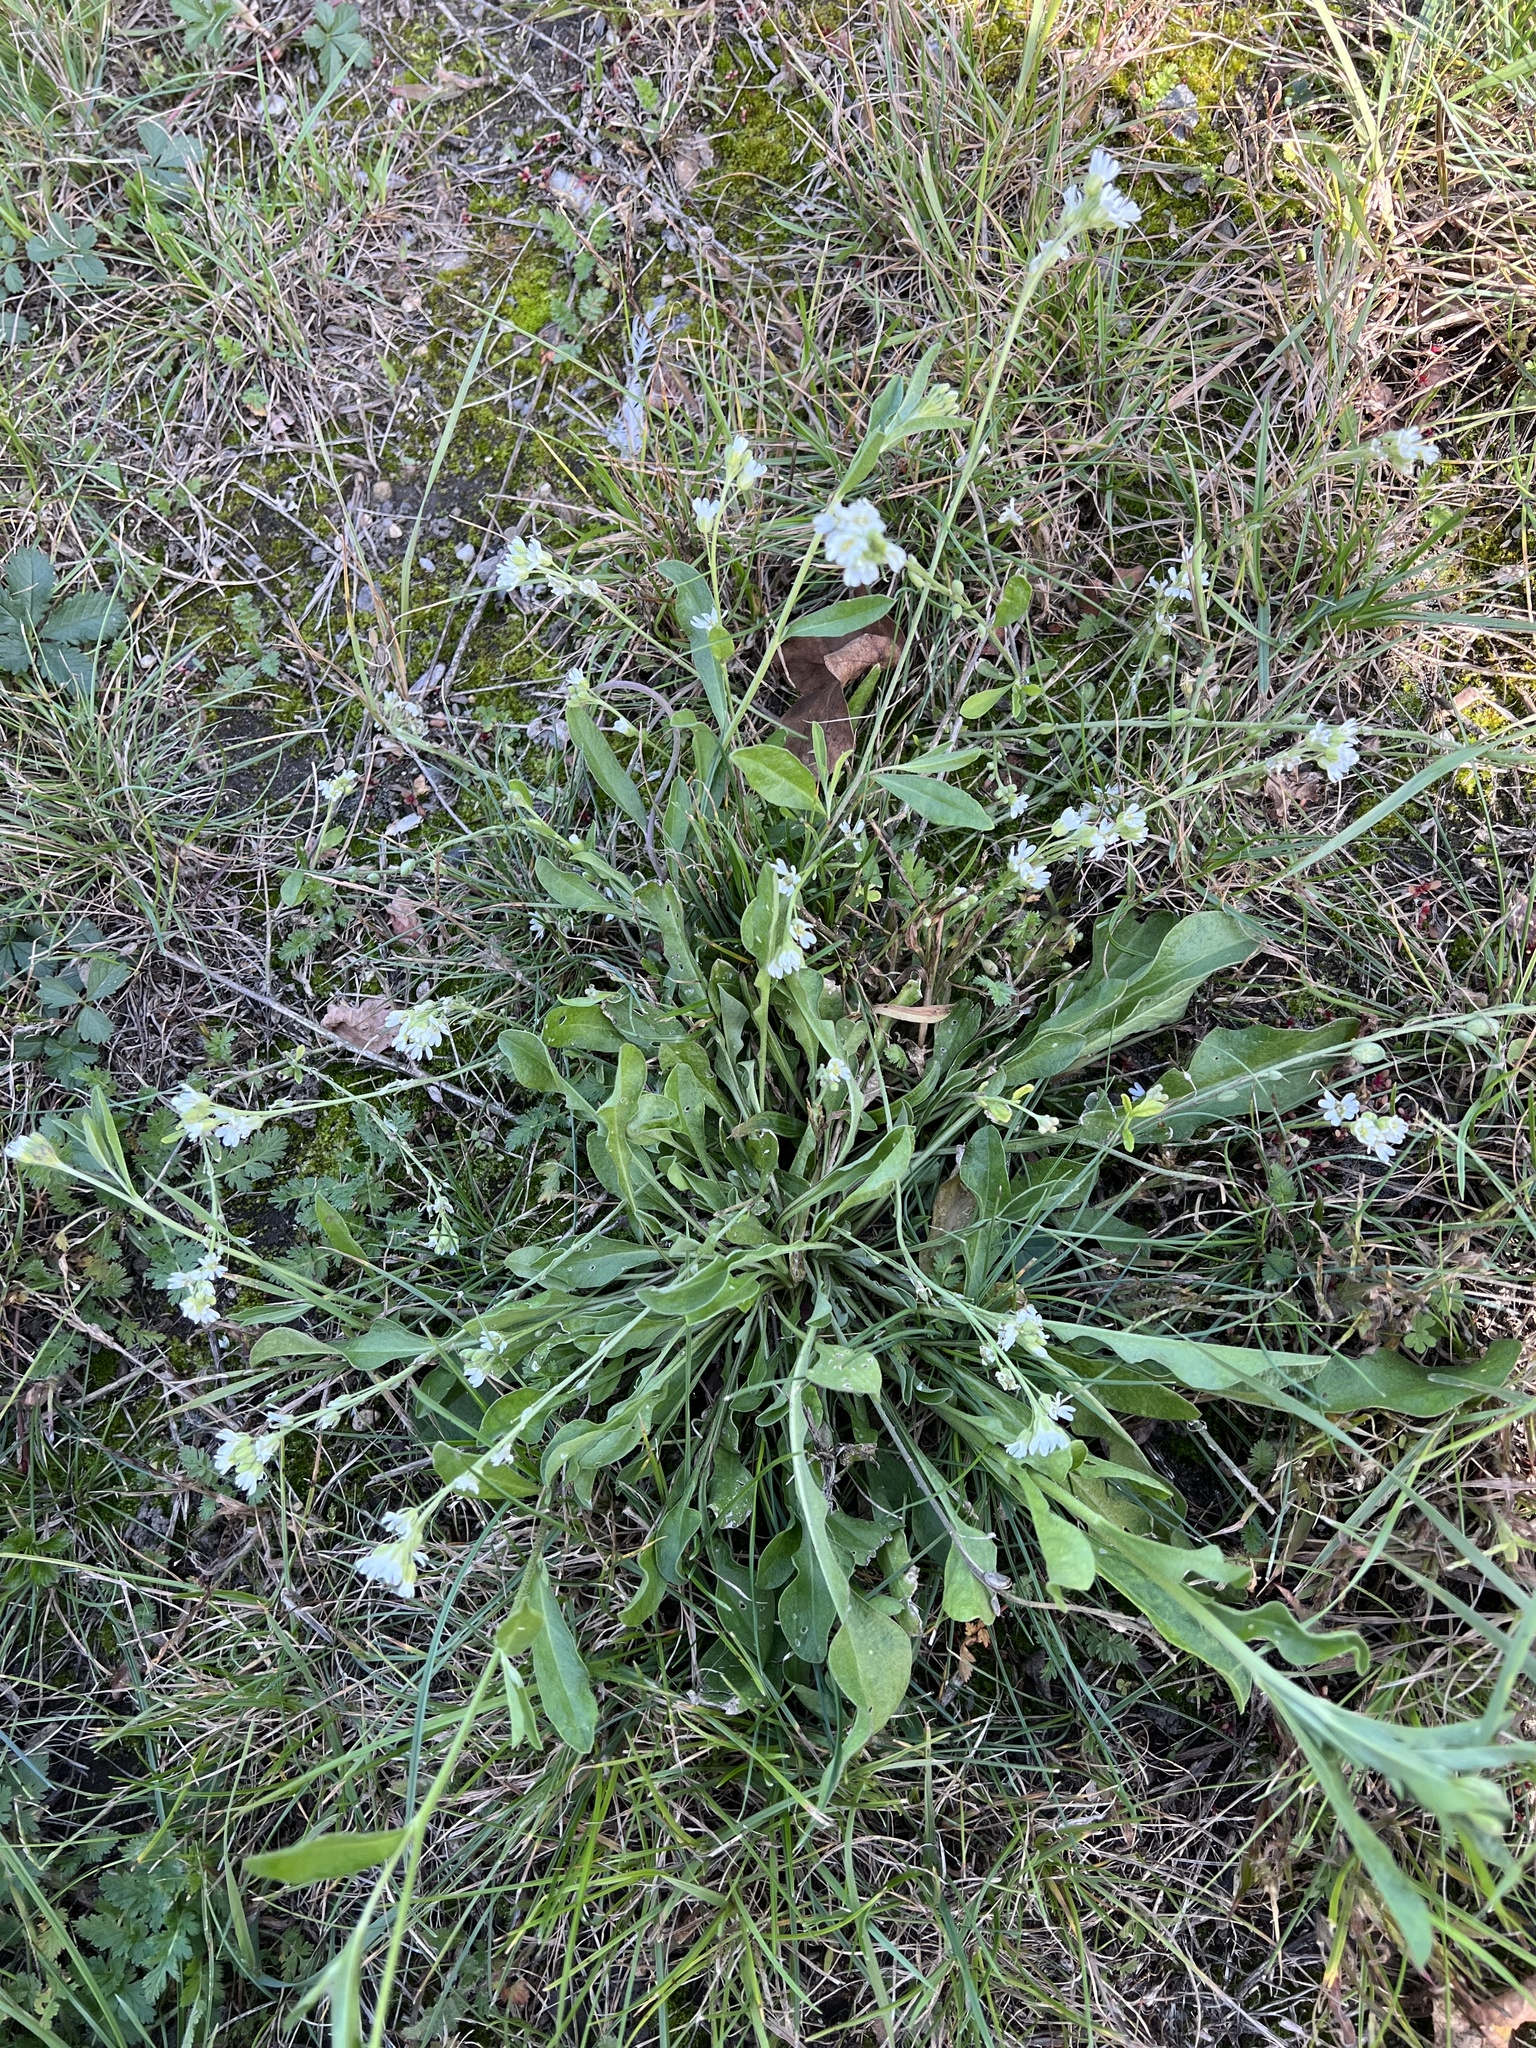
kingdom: Plantae
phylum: Tracheophyta
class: Magnoliopsida
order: Brassicales
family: Brassicaceae
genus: Berteroa
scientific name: Berteroa incana
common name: Hoary alison
